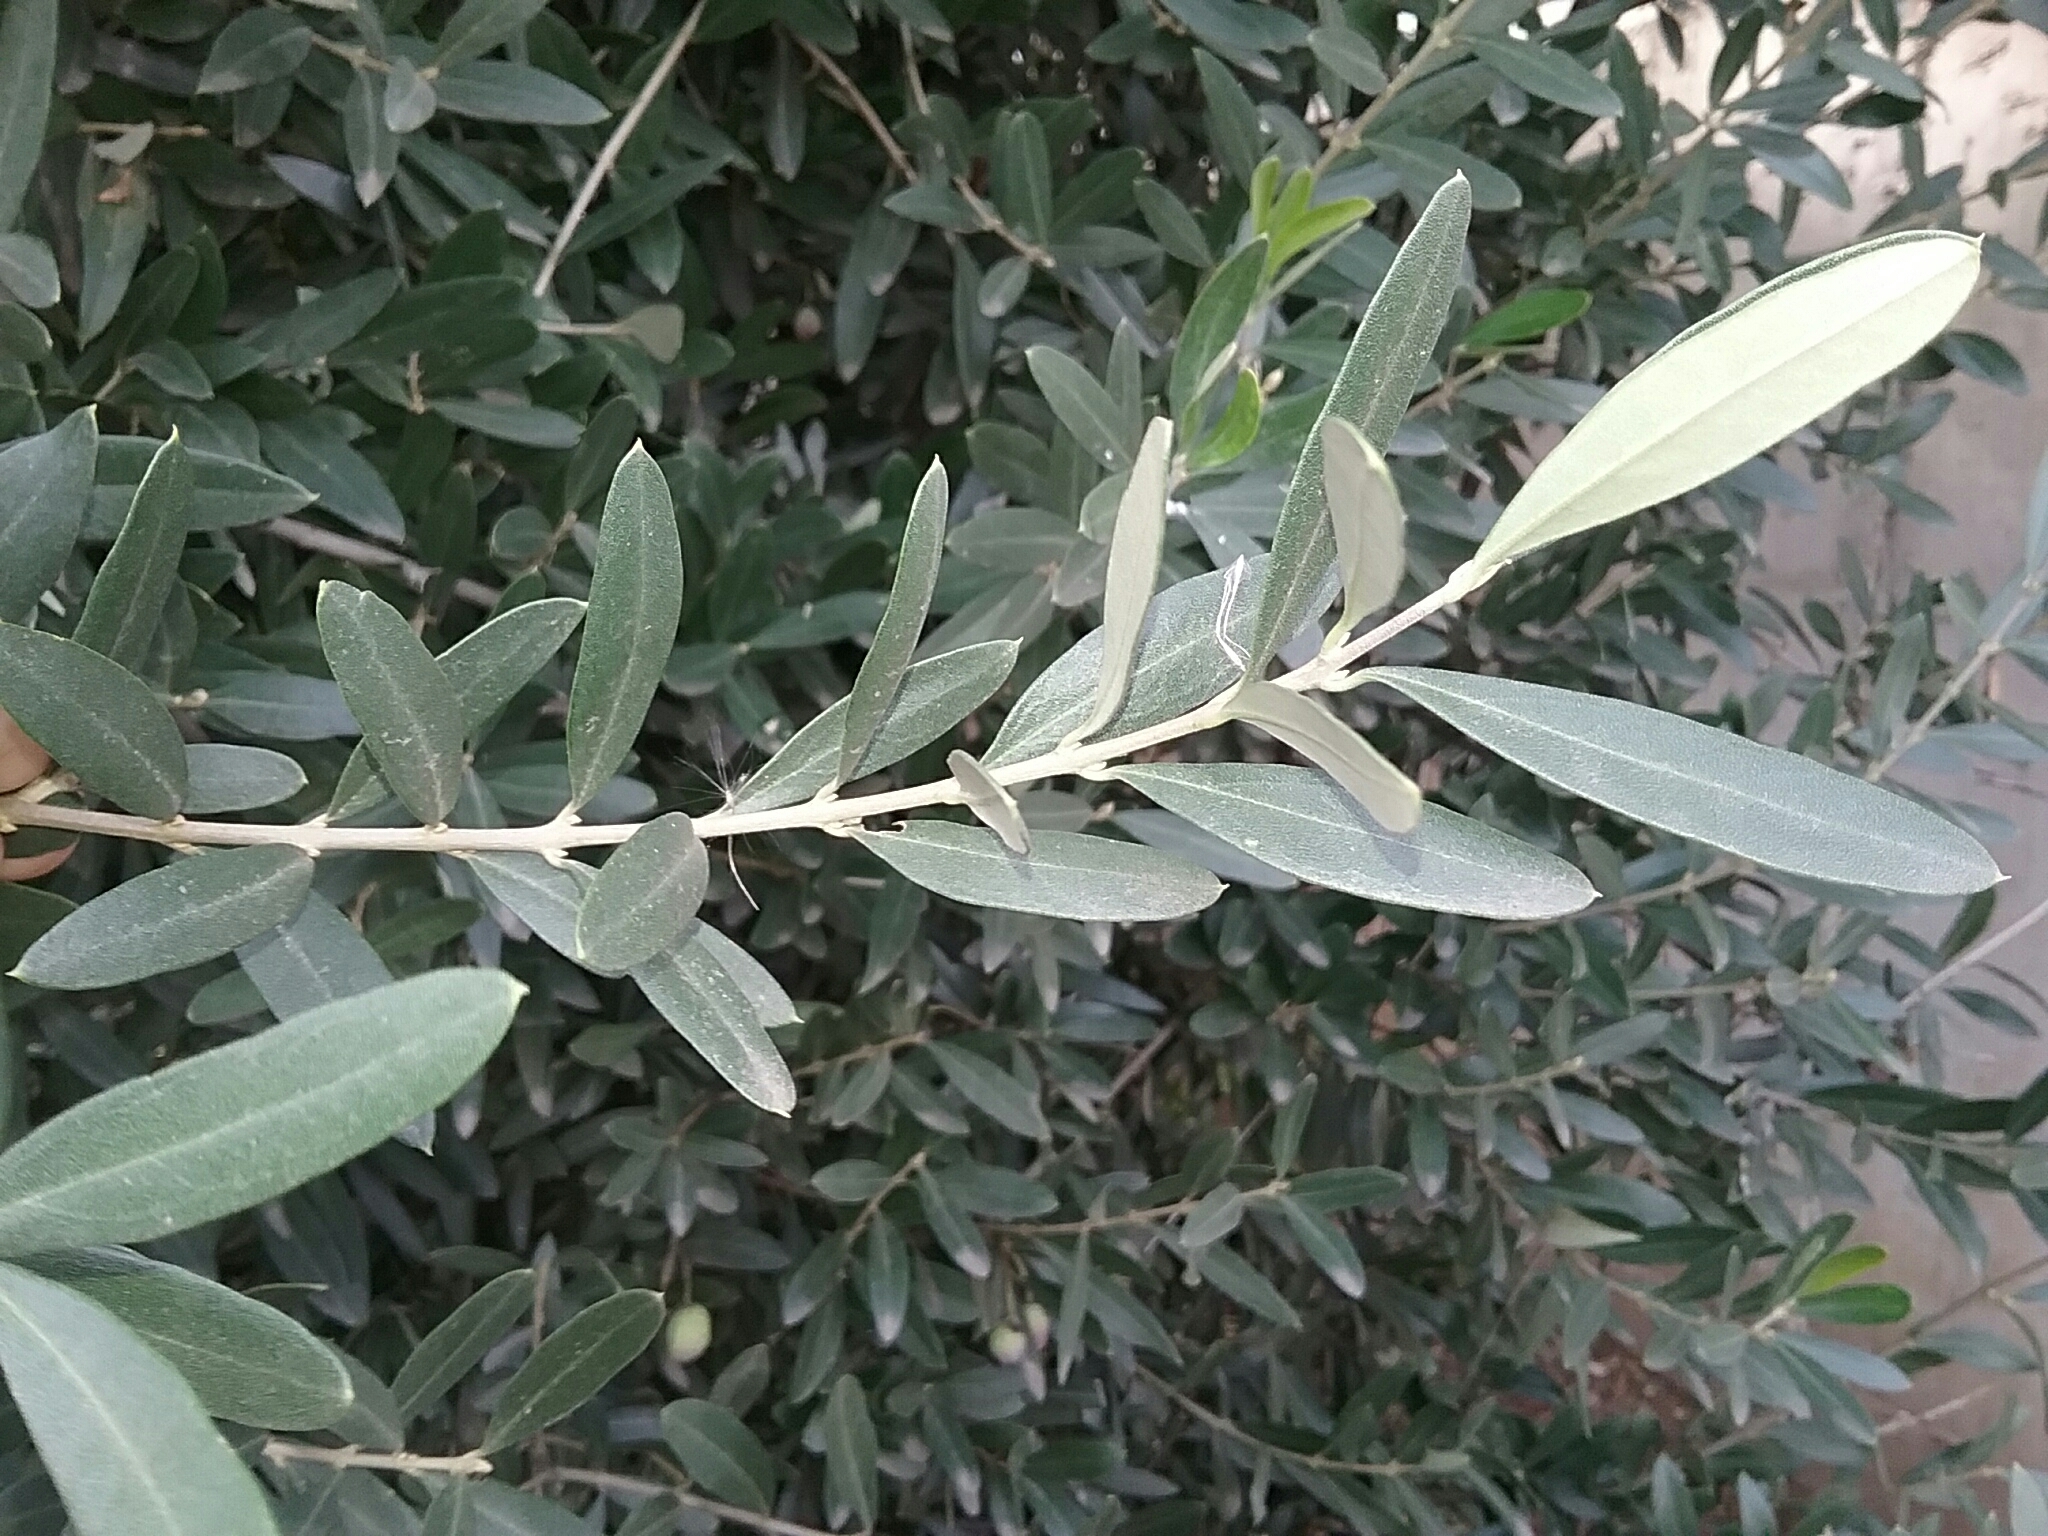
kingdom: Plantae
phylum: Tracheophyta
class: Magnoliopsida
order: Lamiales
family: Oleaceae
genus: Olea
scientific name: Olea europaea
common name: Olive
